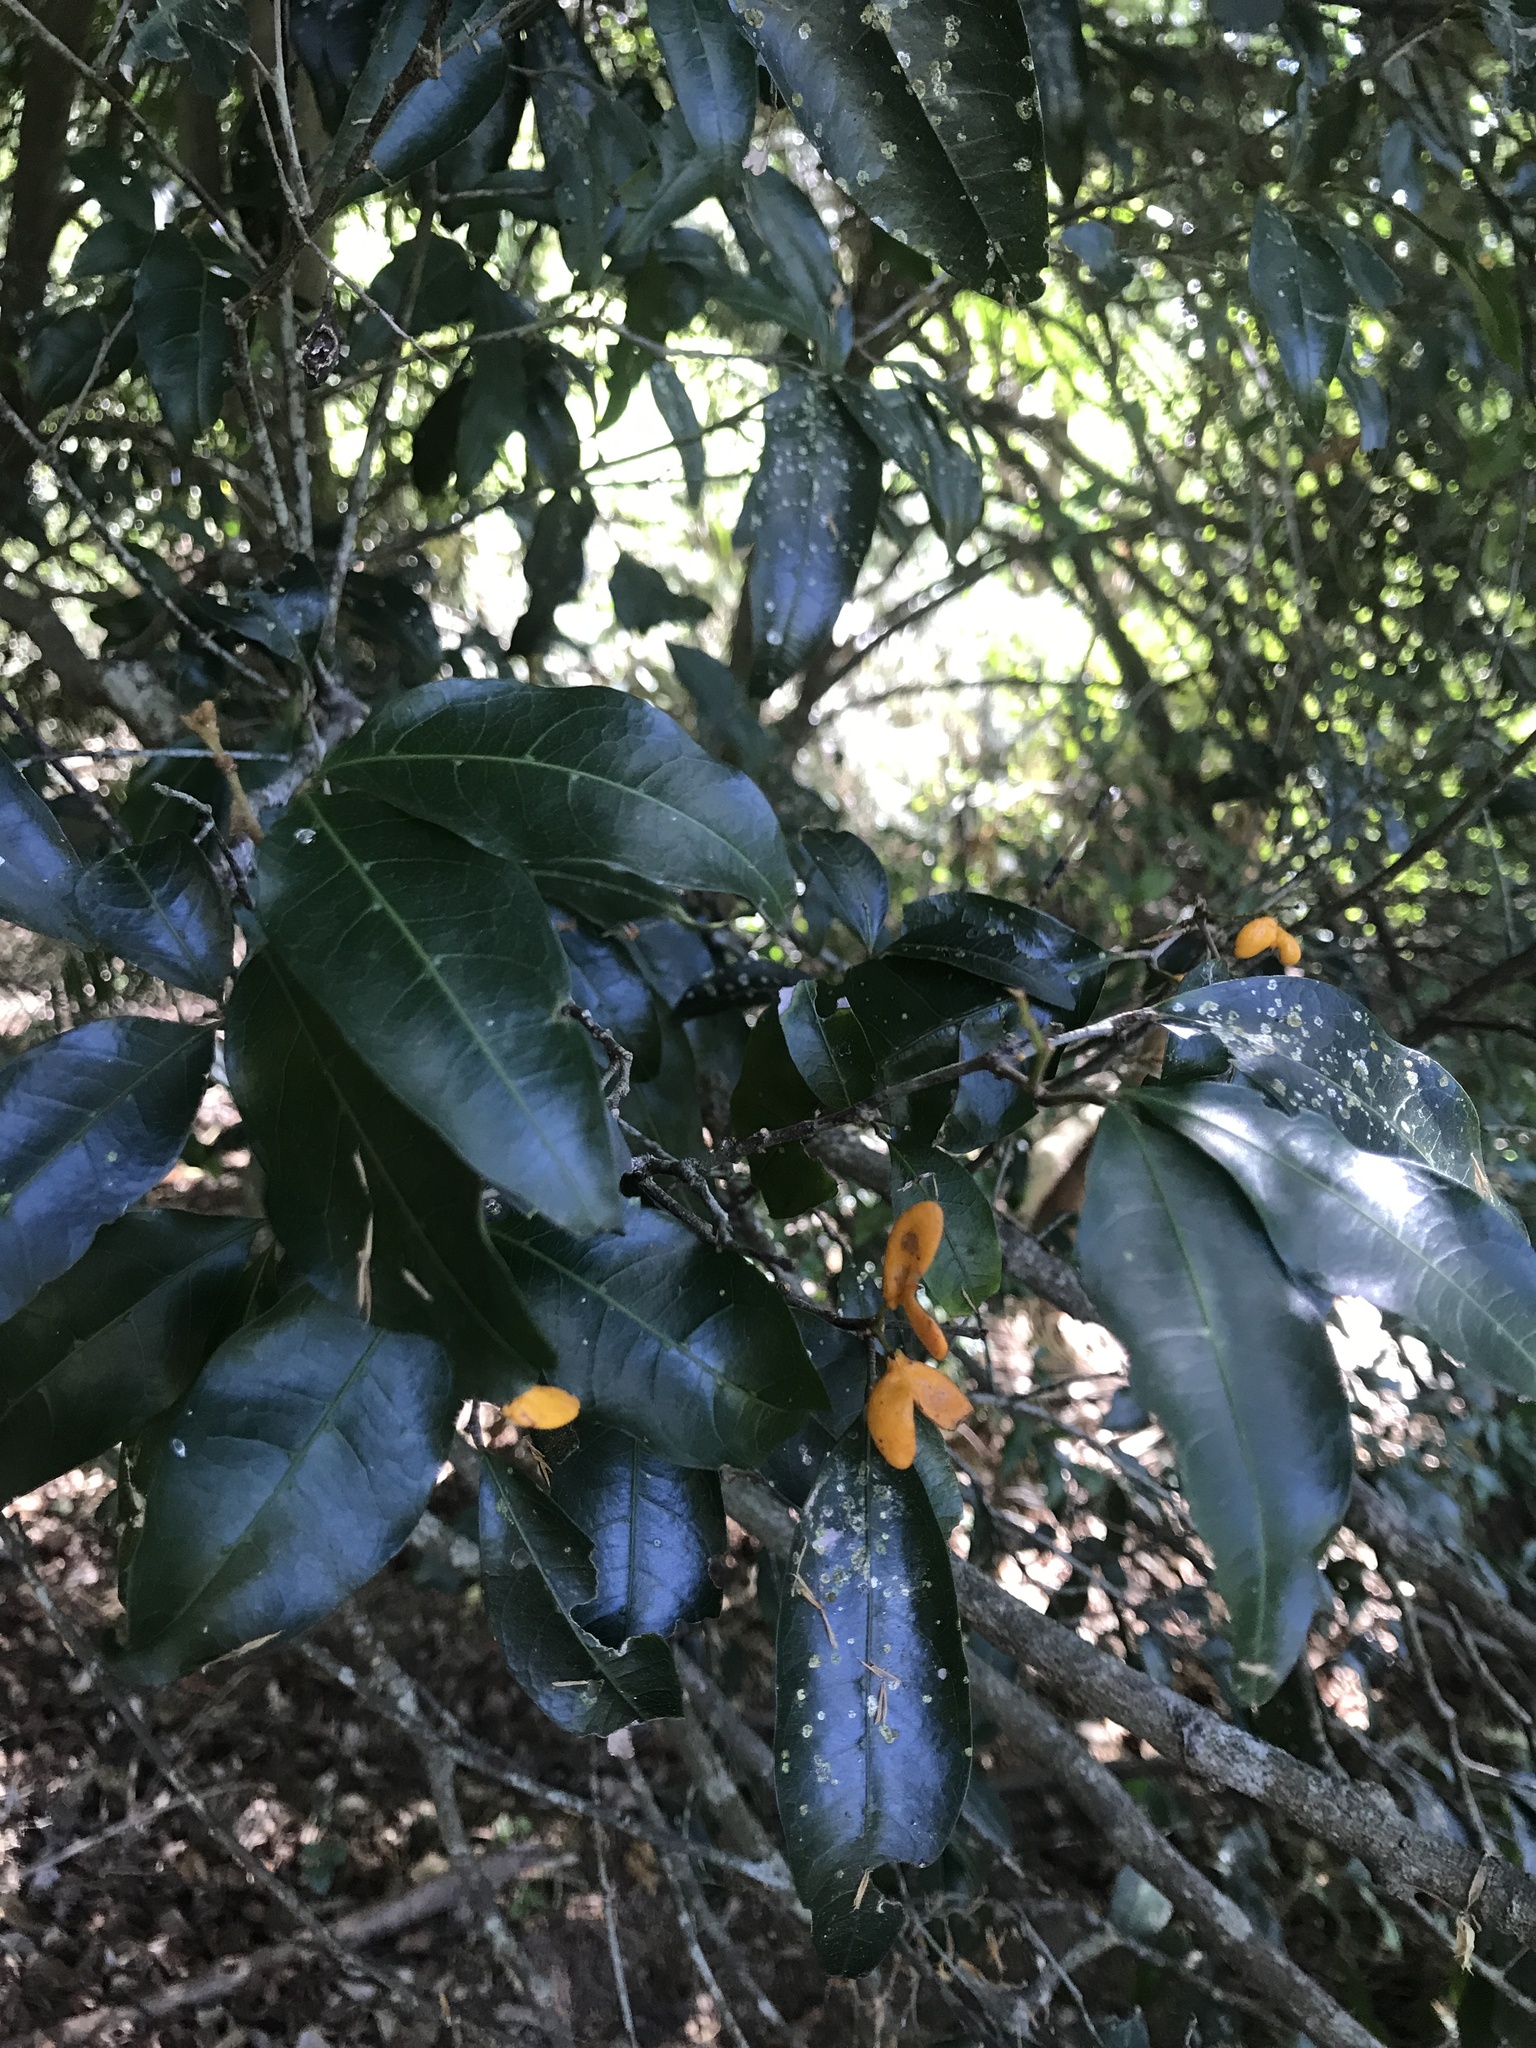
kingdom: Plantae
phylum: Tracheophyta
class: Magnoliopsida
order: Sapindales
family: Sapindaceae
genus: Arytera
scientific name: Arytera distylis
